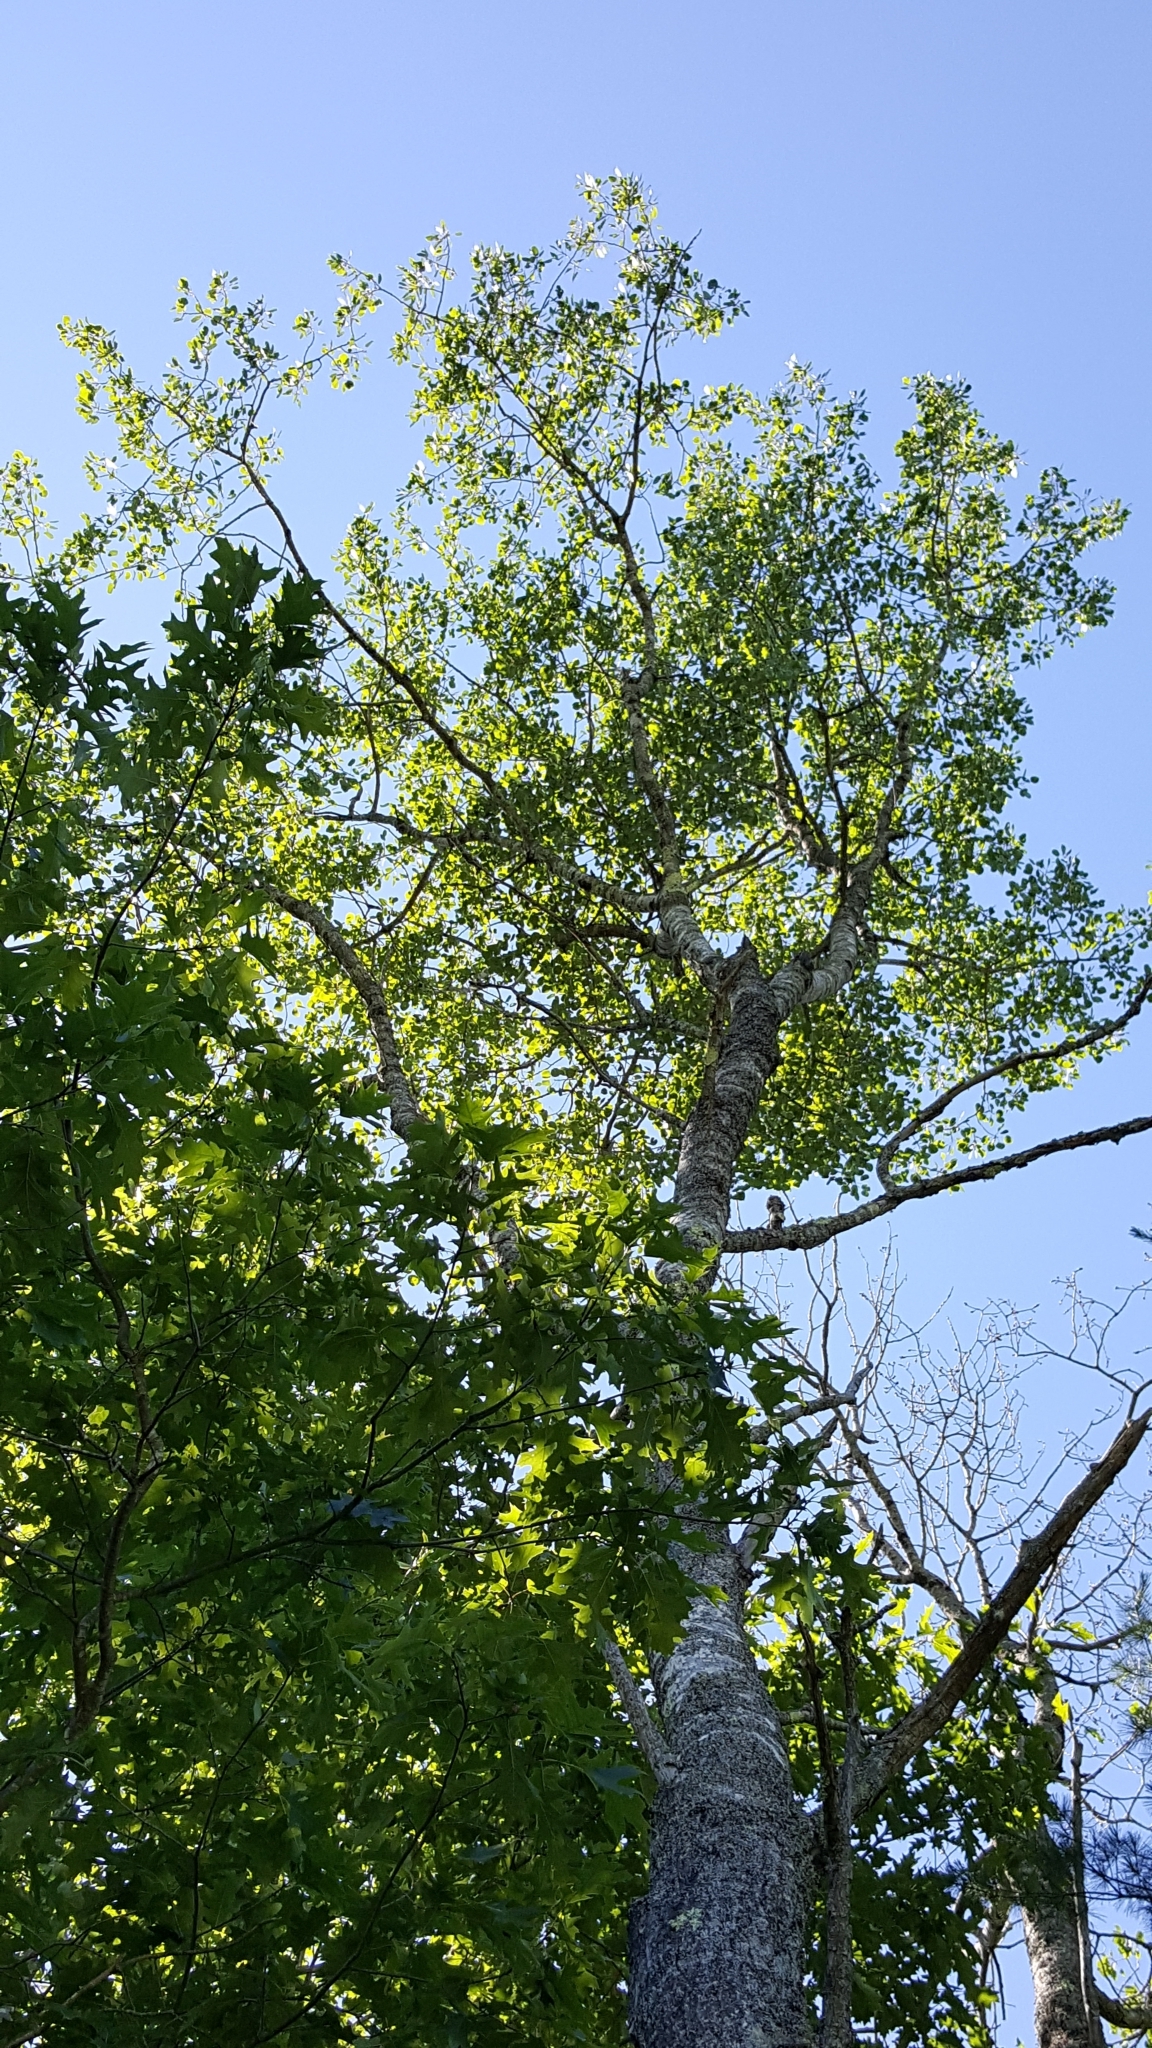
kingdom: Plantae
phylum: Tracheophyta
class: Magnoliopsida
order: Malpighiales
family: Salicaceae
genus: Populus
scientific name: Populus grandidentata
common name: Bigtooth aspen
